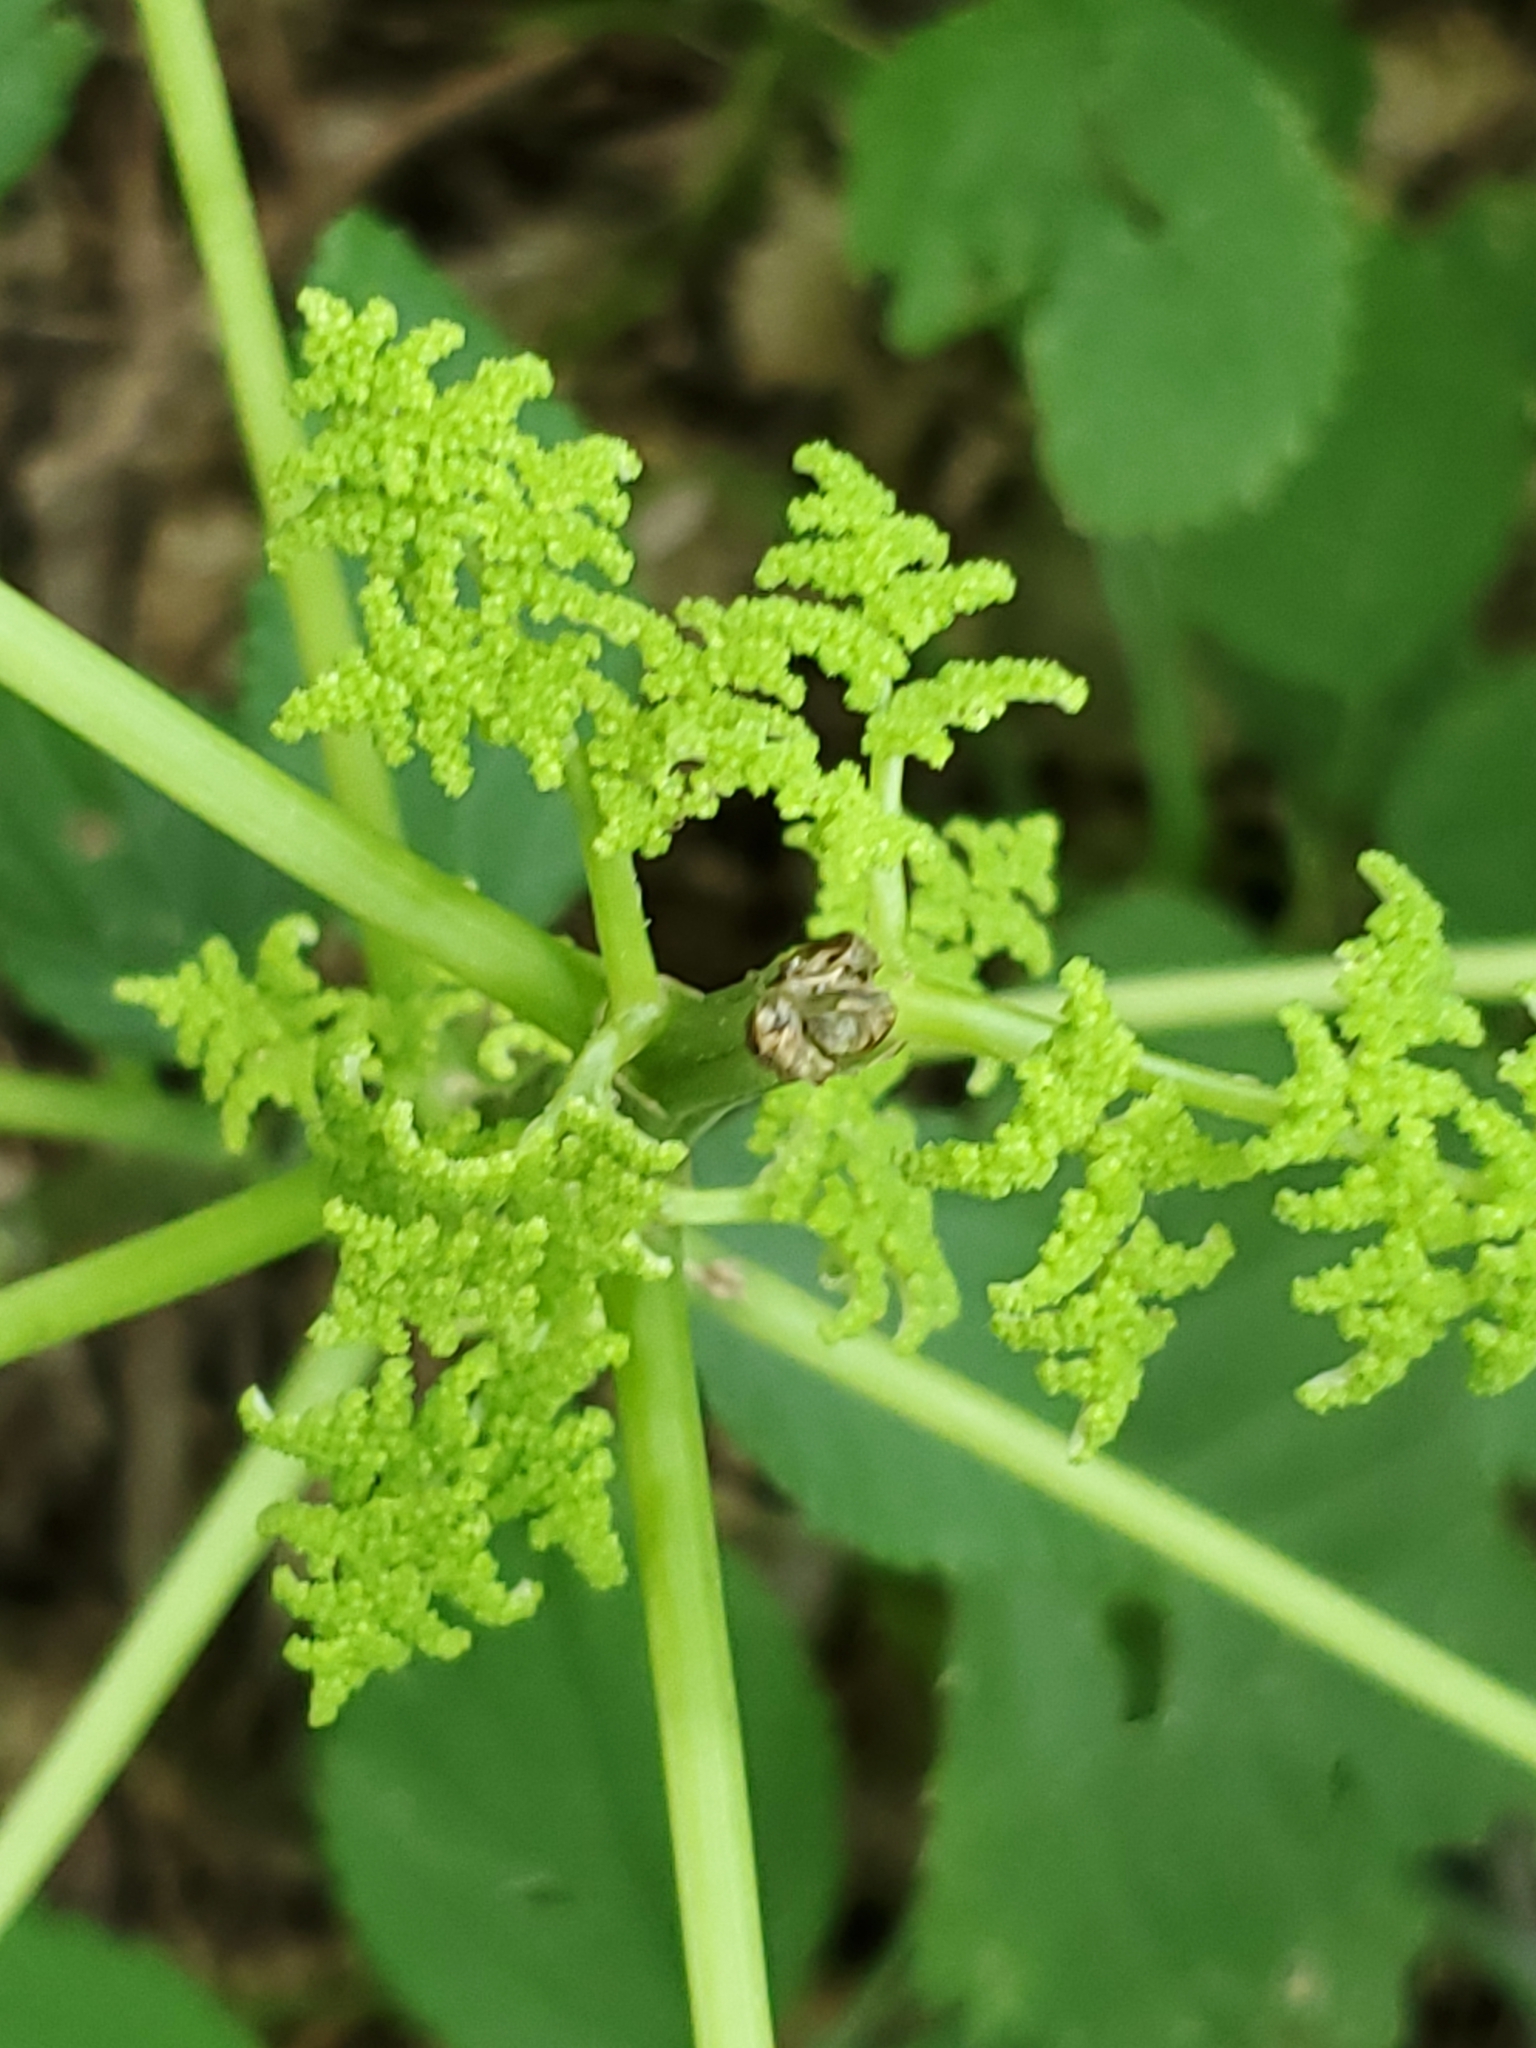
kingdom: Plantae
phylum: Tracheophyta
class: Magnoliopsida
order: Rosales
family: Urticaceae
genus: Laportea
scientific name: Laportea canadensis
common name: Canada nettle
